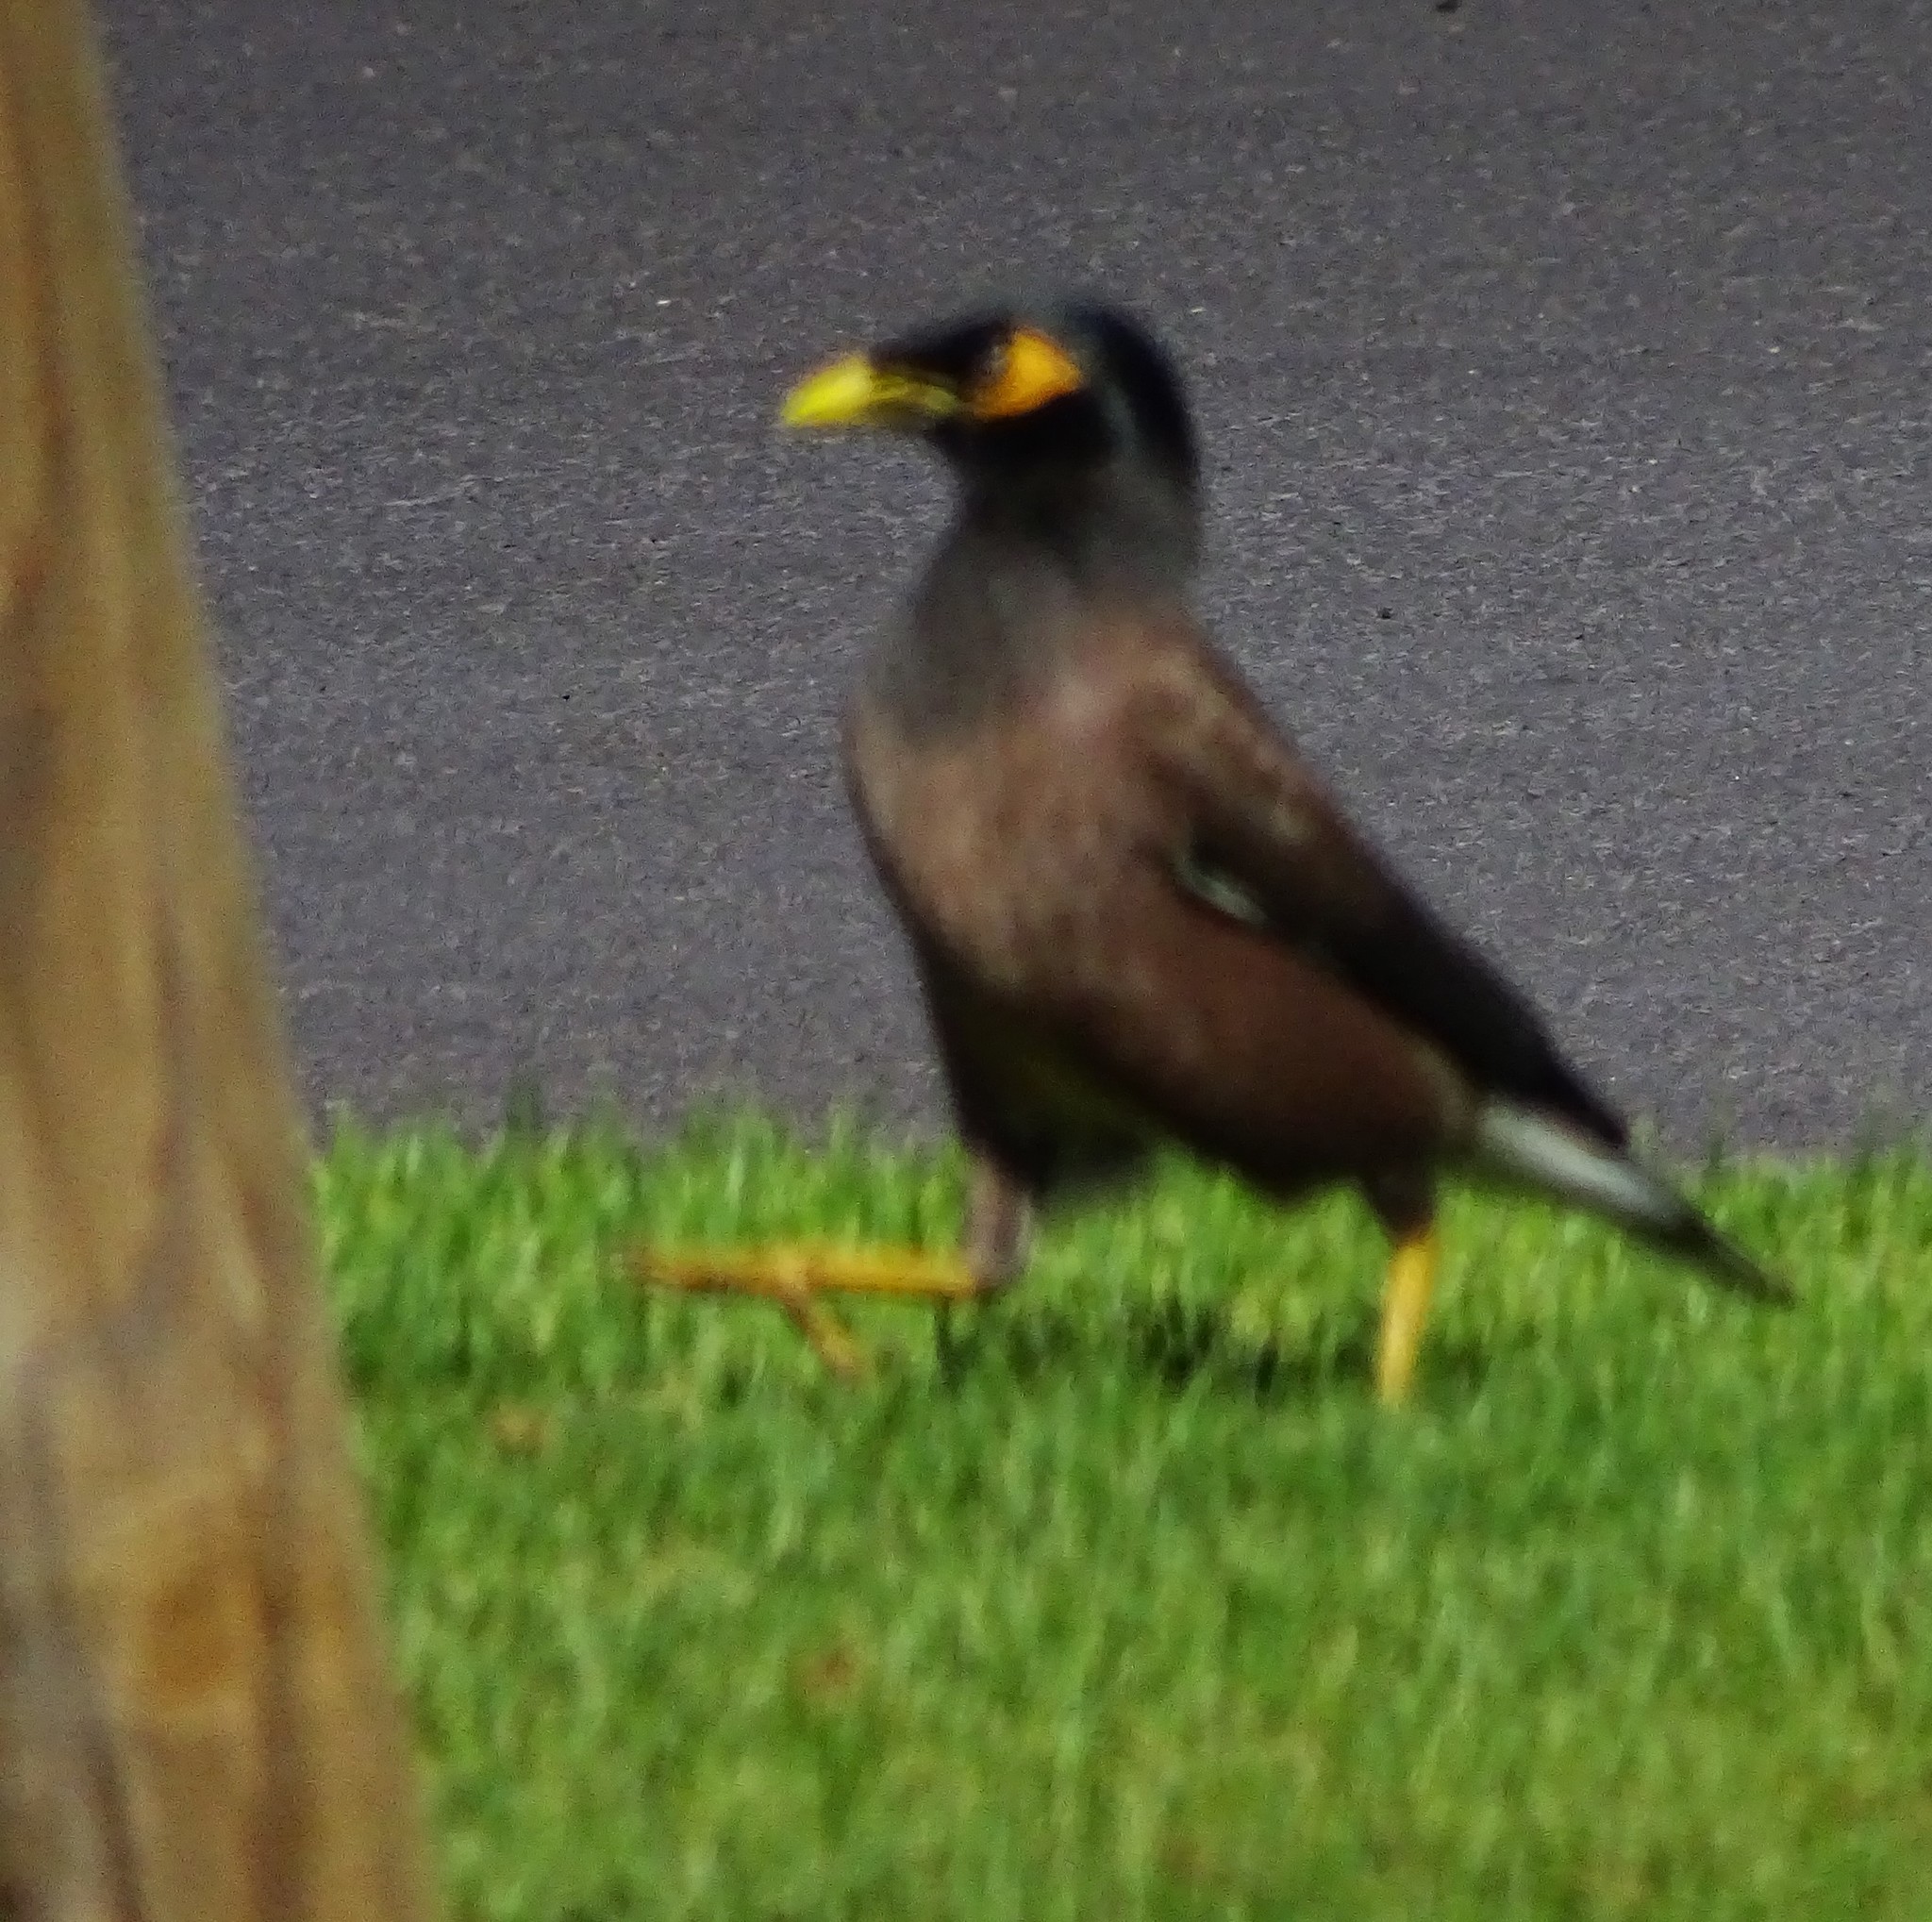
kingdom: Animalia
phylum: Chordata
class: Aves
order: Passeriformes
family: Sturnidae
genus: Acridotheres
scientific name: Acridotheres tristis
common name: Common myna
